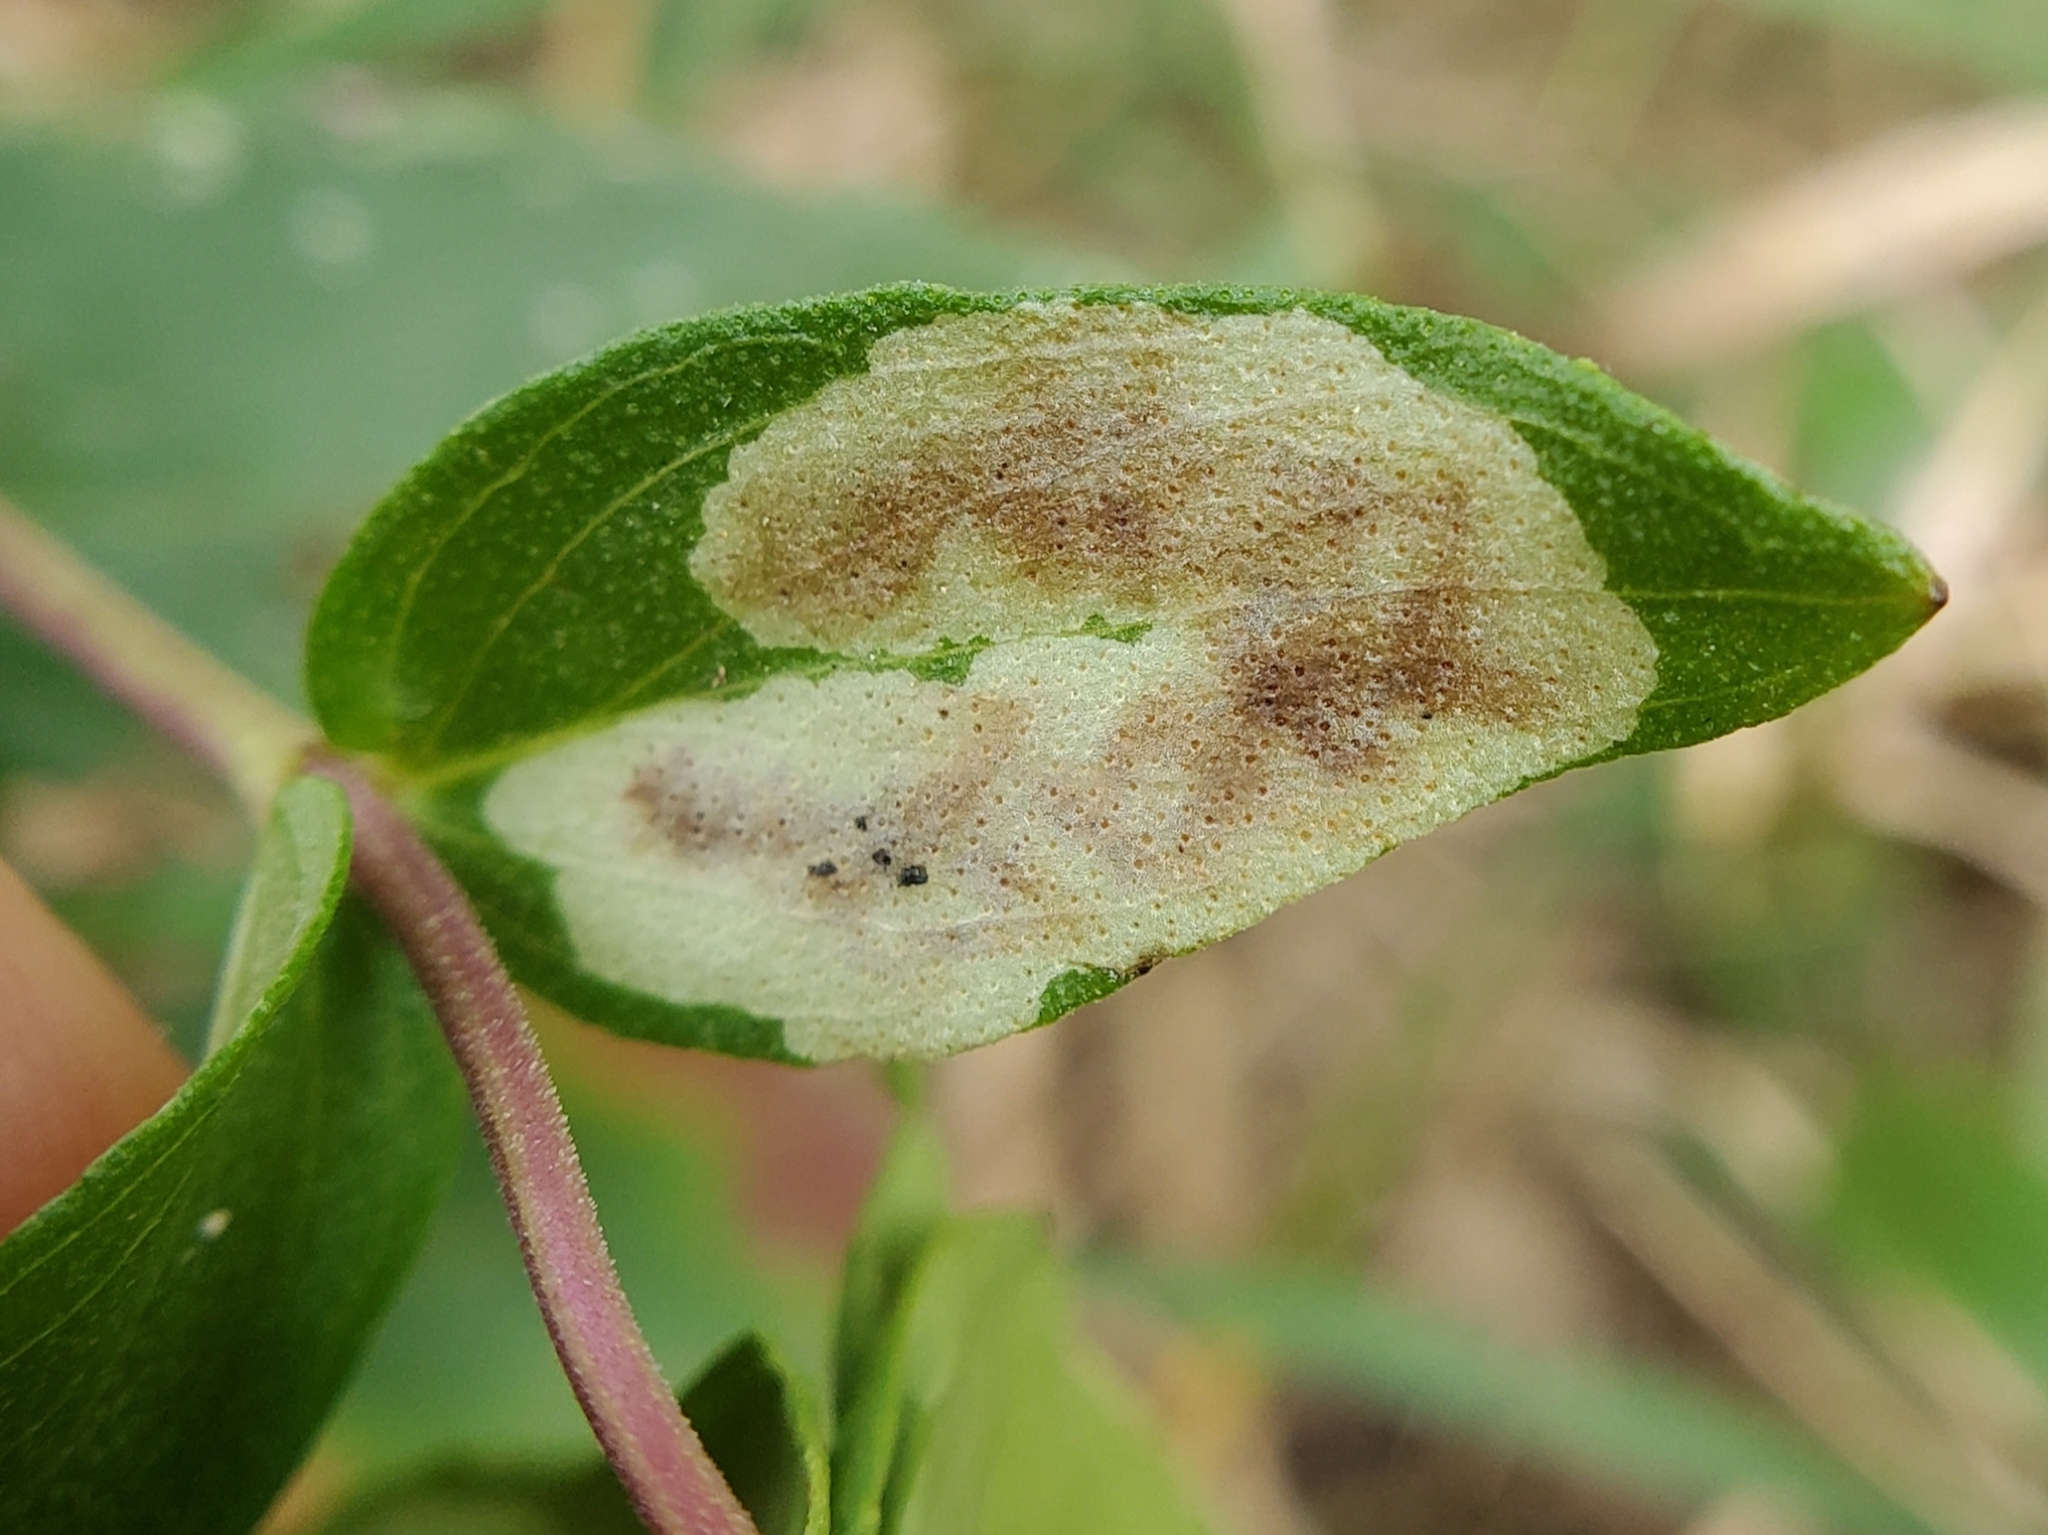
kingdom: Animalia
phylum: Arthropoda
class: Insecta
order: Diptera
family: Agromyzidae
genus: Calycomyza
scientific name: Calycomyza menthae
